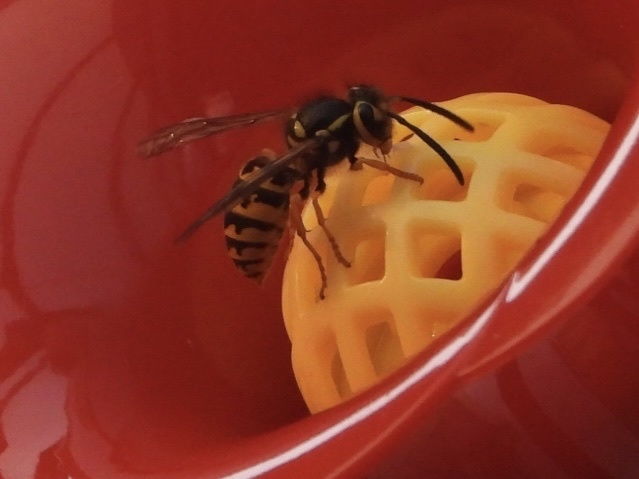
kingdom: Animalia
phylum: Arthropoda
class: Insecta
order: Hymenoptera
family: Vespidae
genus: Vespula
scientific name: Vespula pensylvanica
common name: Western yellowjacket
